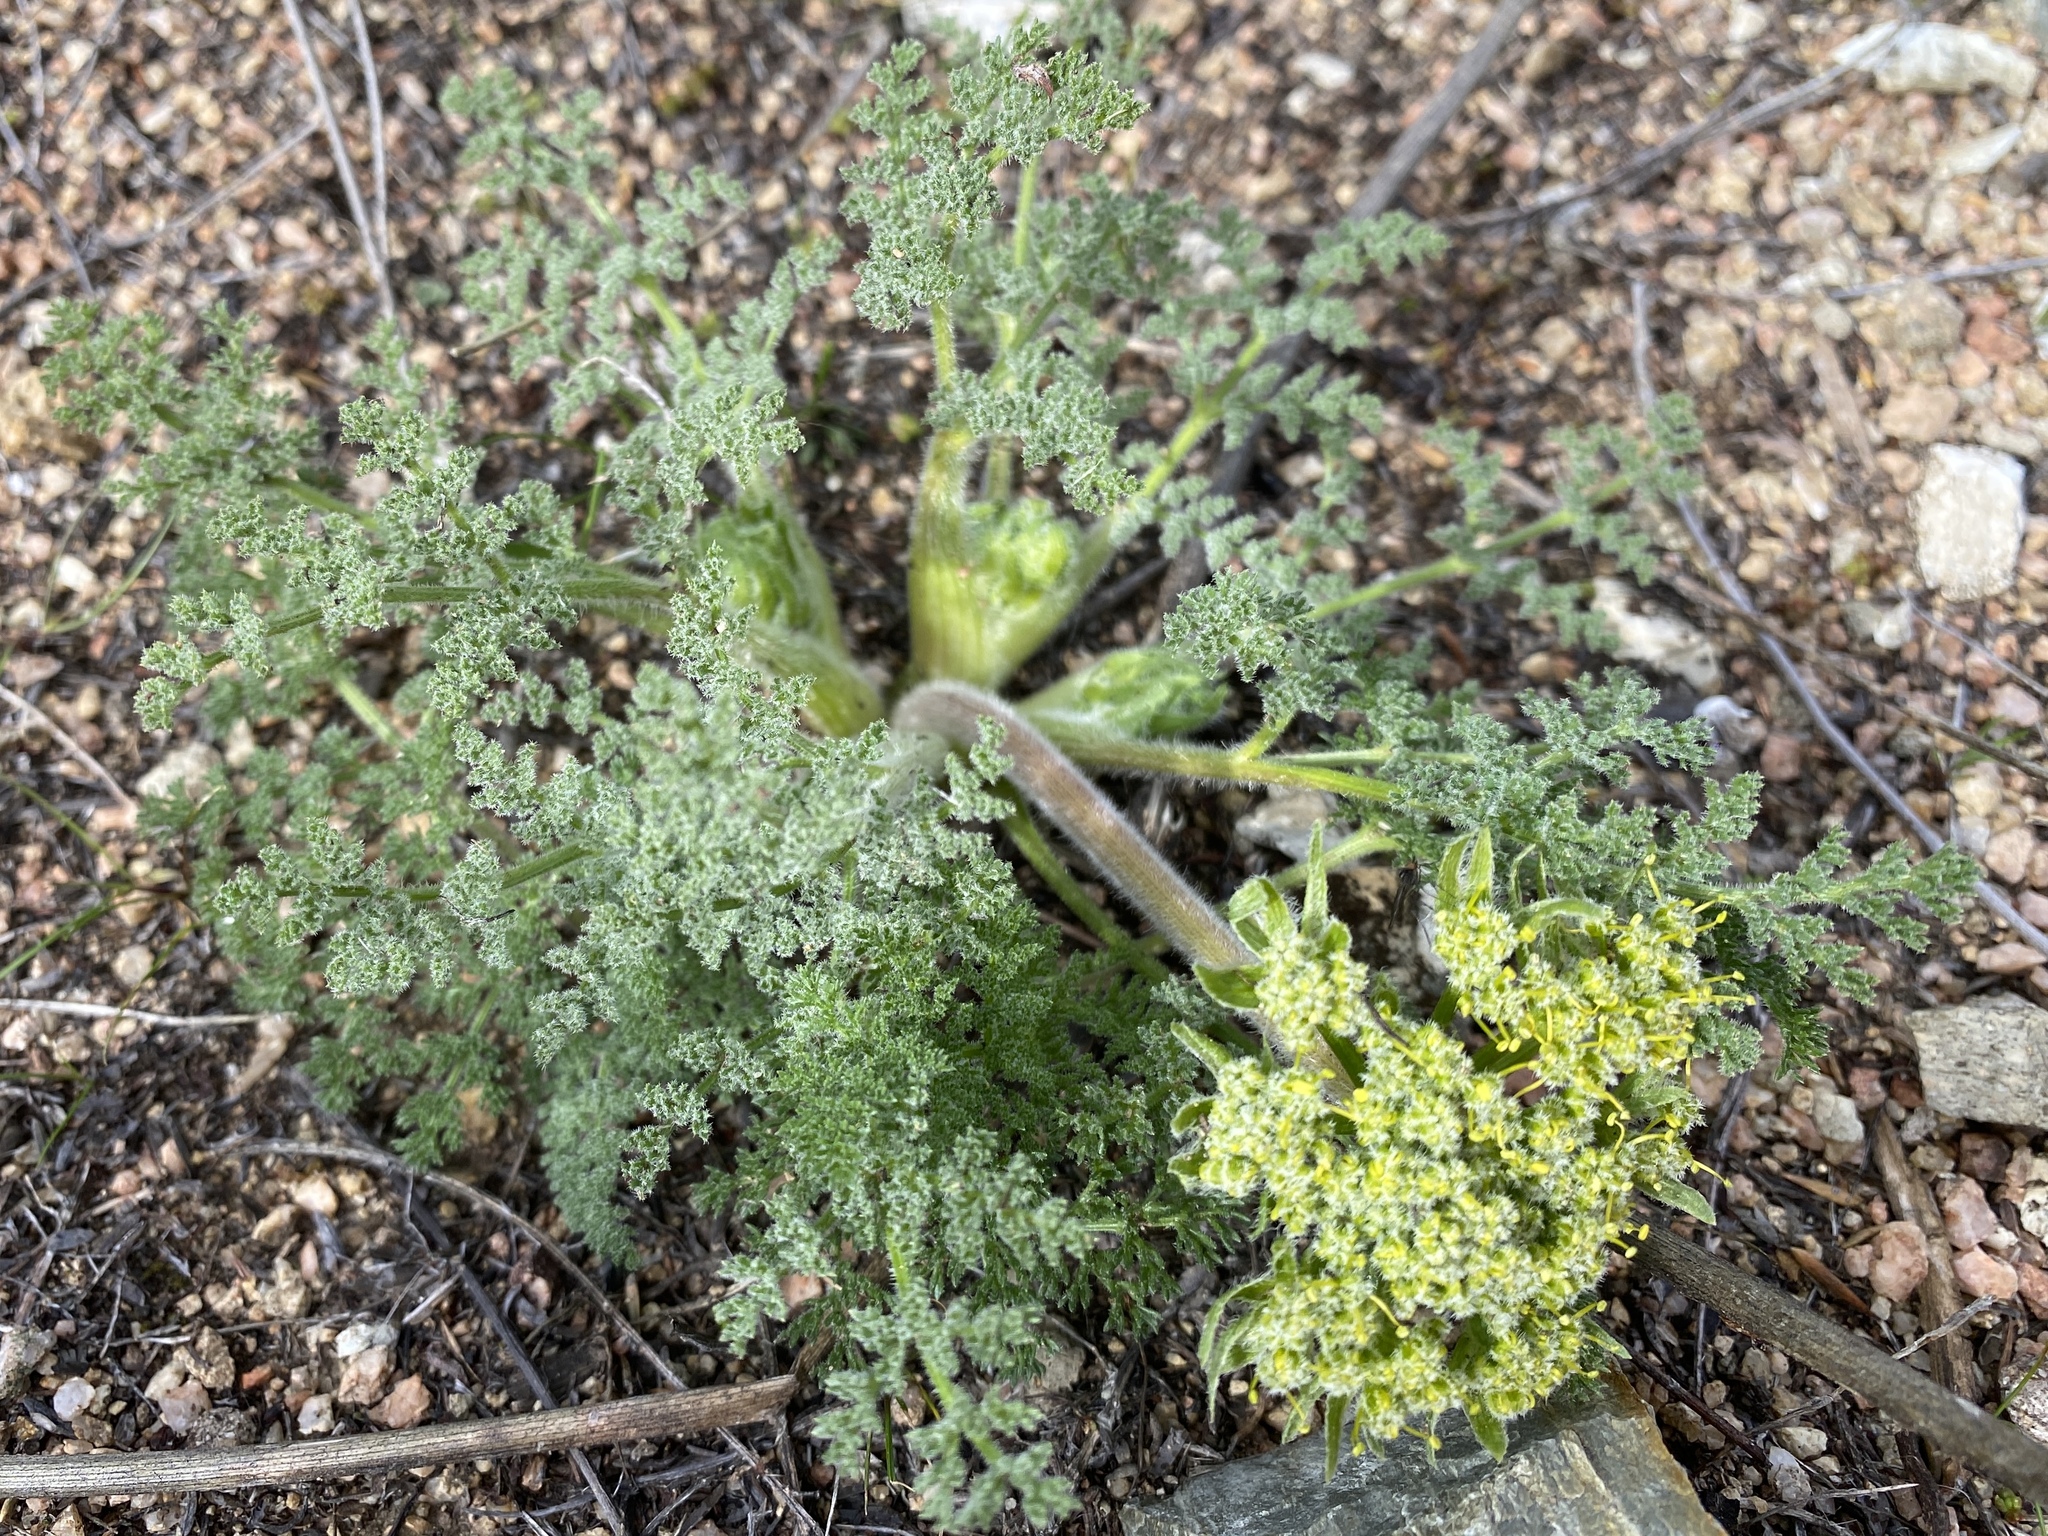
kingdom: Plantae
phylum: Tracheophyta
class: Magnoliopsida
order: Apiales
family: Apiaceae
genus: Lomatium
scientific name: Lomatium dasycarpum
